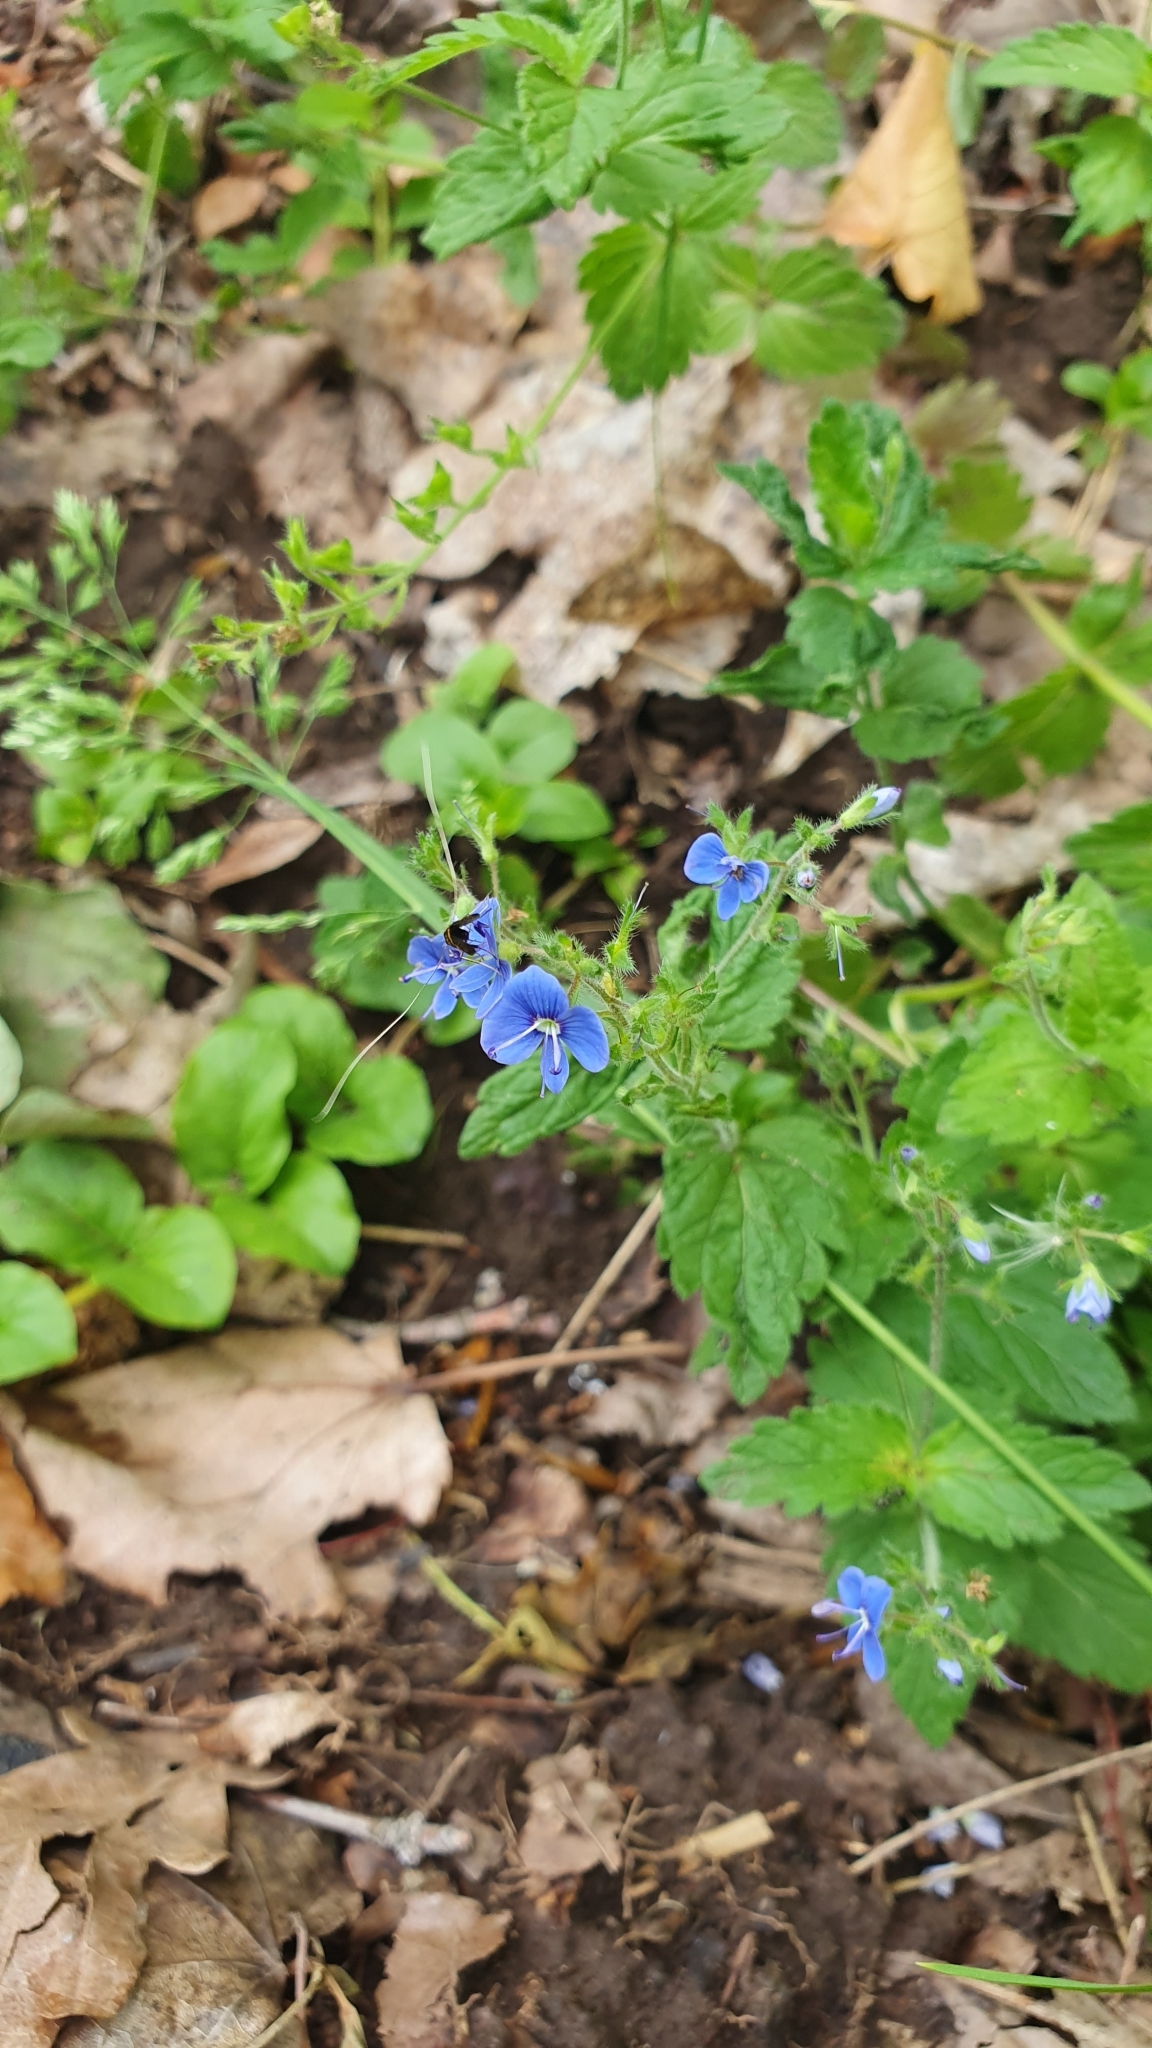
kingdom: Plantae
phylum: Tracheophyta
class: Magnoliopsida
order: Lamiales
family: Plantaginaceae
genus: Veronica
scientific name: Veronica chamaedrys
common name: Germander speedwell
